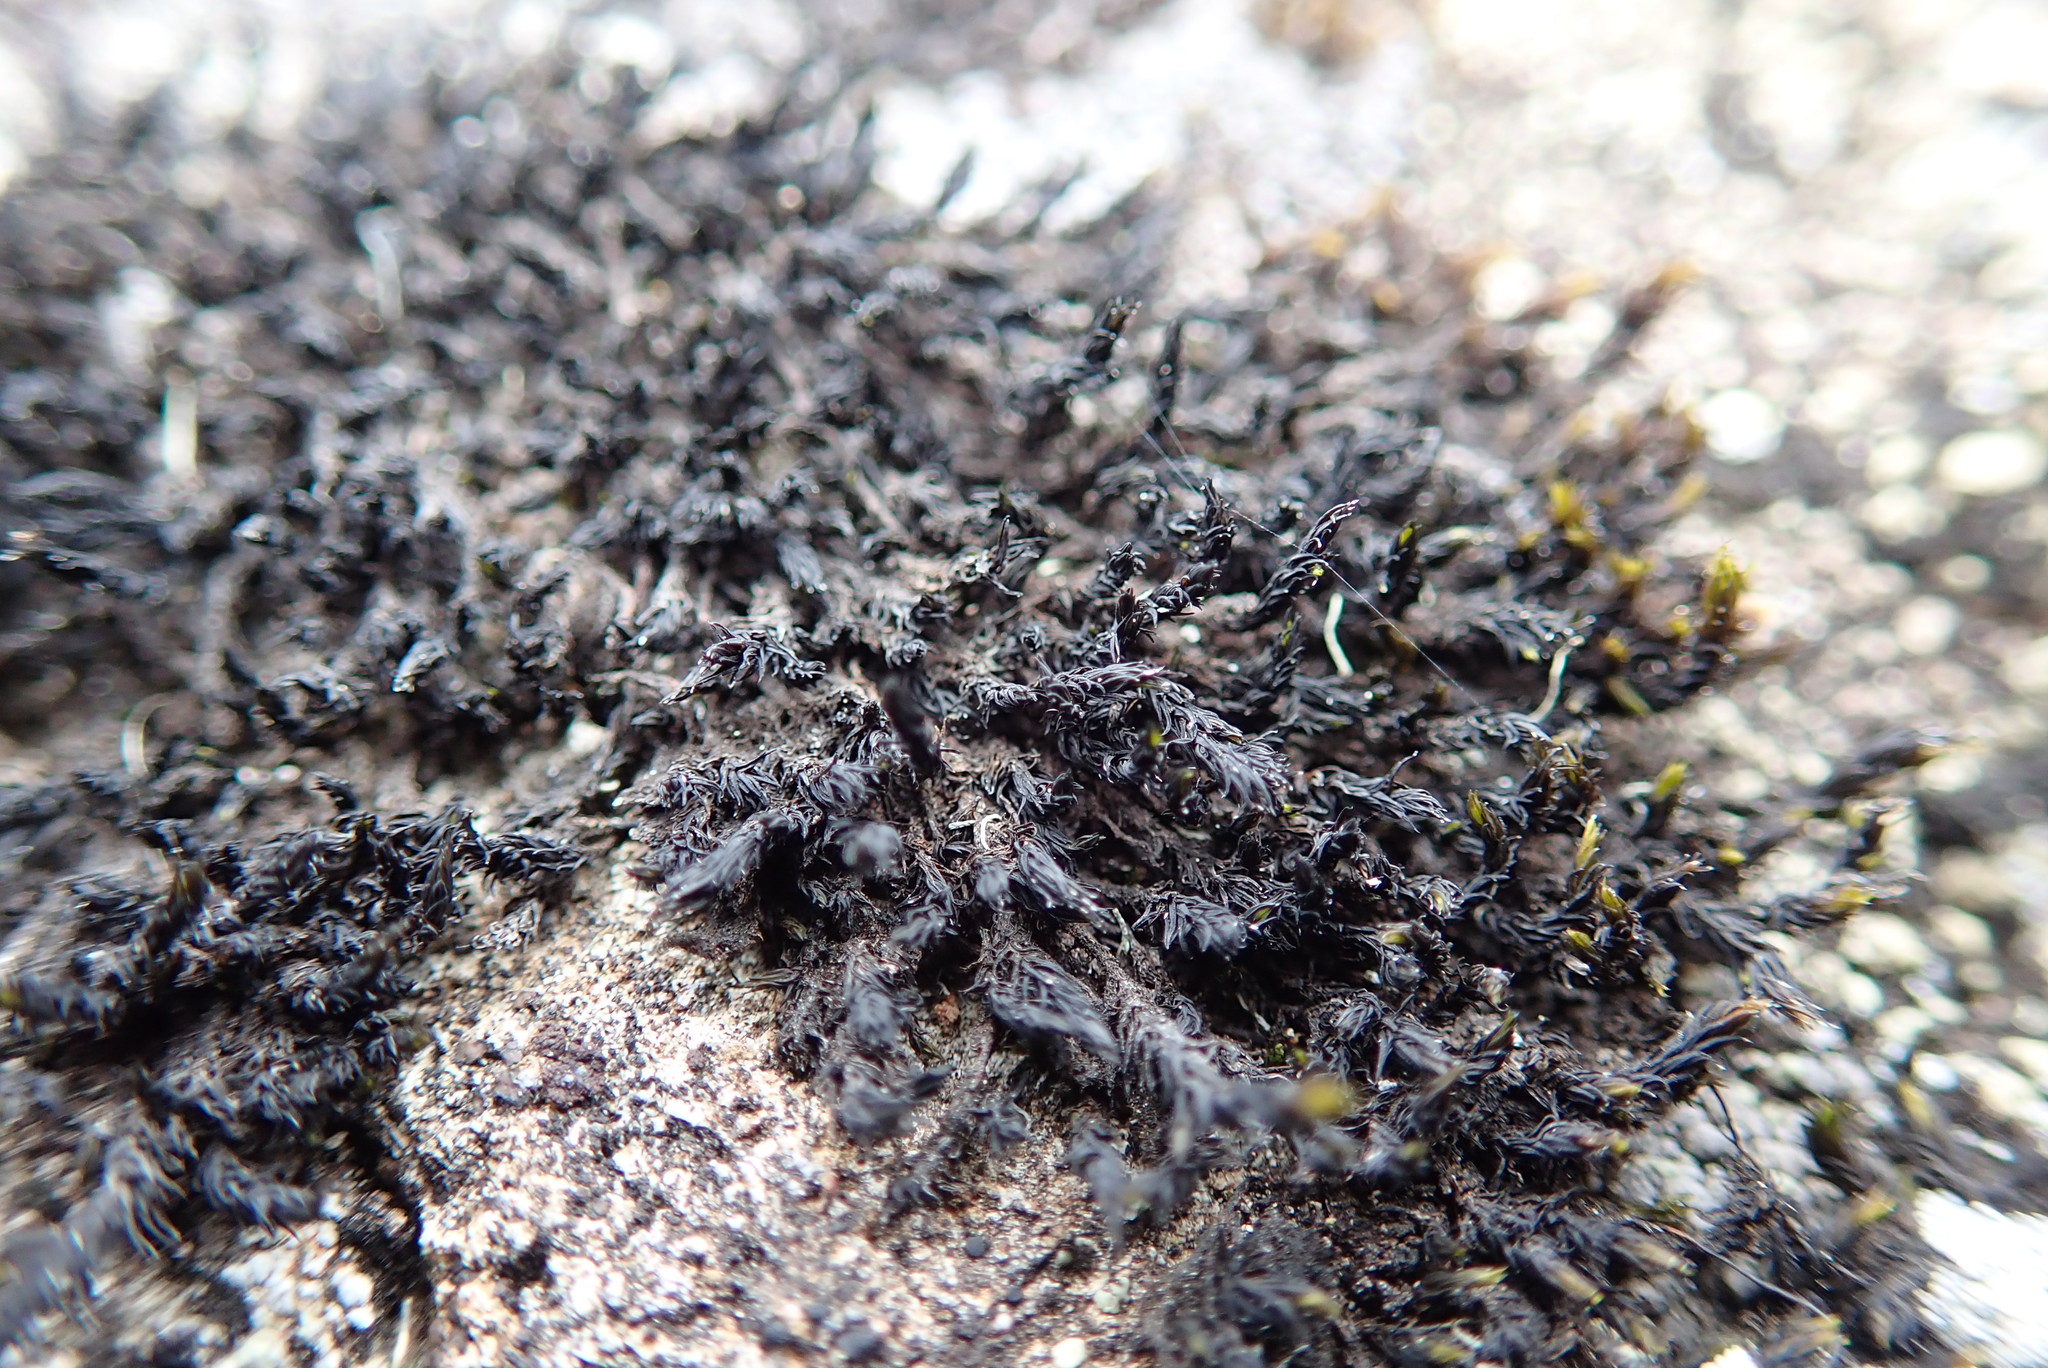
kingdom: Plantae
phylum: Bryophyta
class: Andreaeopsida
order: Andreaeales
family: Andreaeaceae
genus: Andreaea
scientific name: Andreaea rothii
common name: Dusky rock moss
